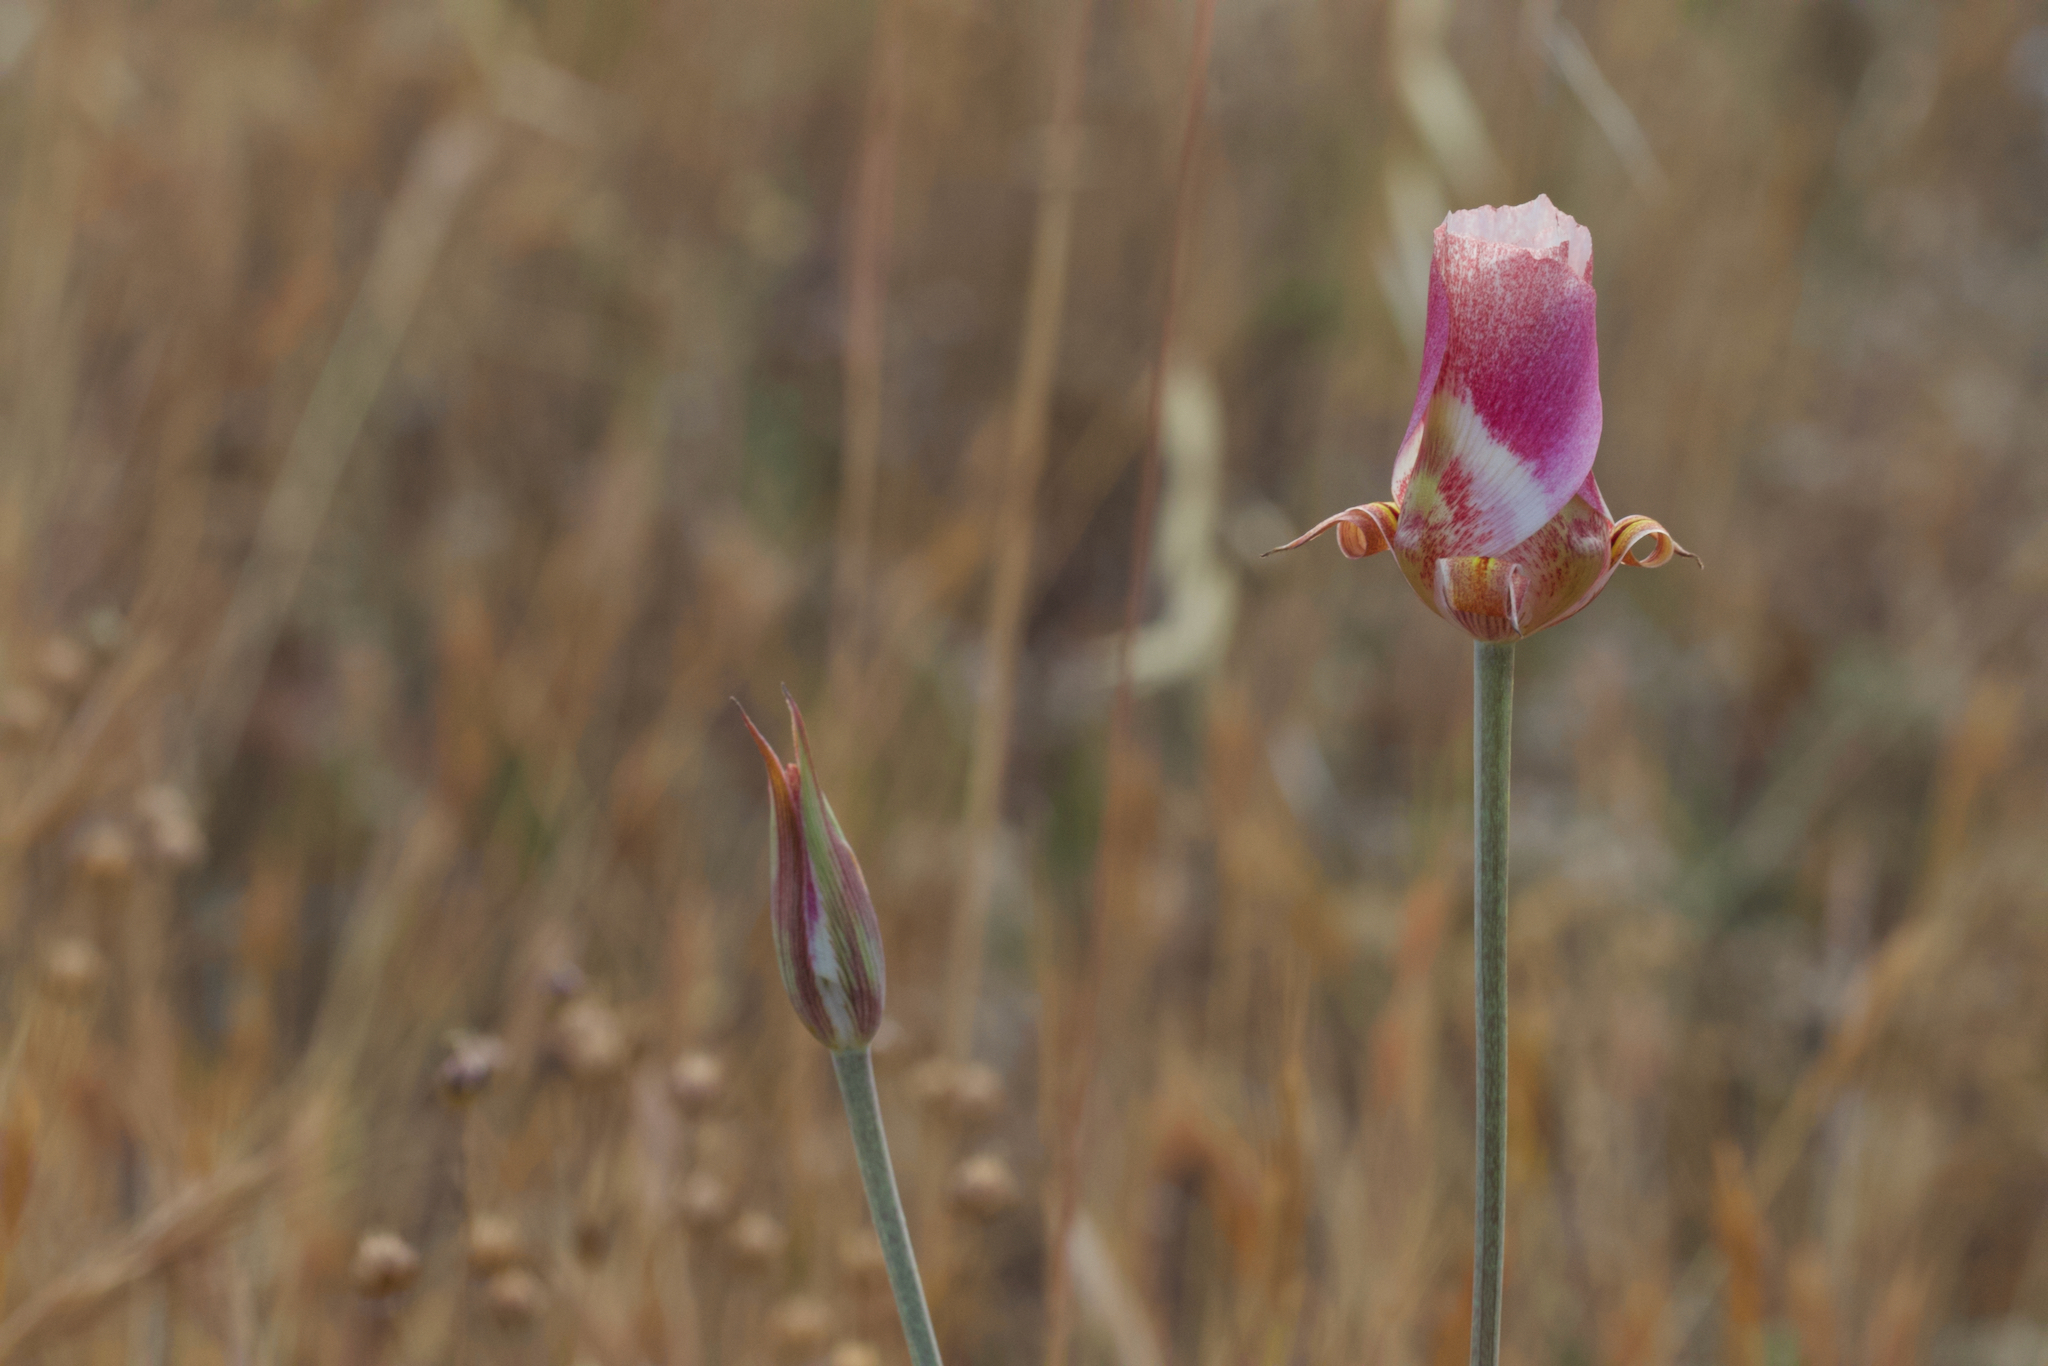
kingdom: Plantae
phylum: Tracheophyta
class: Liliopsida
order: Liliales
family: Liliaceae
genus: Calochortus
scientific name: Calochortus argillosus
